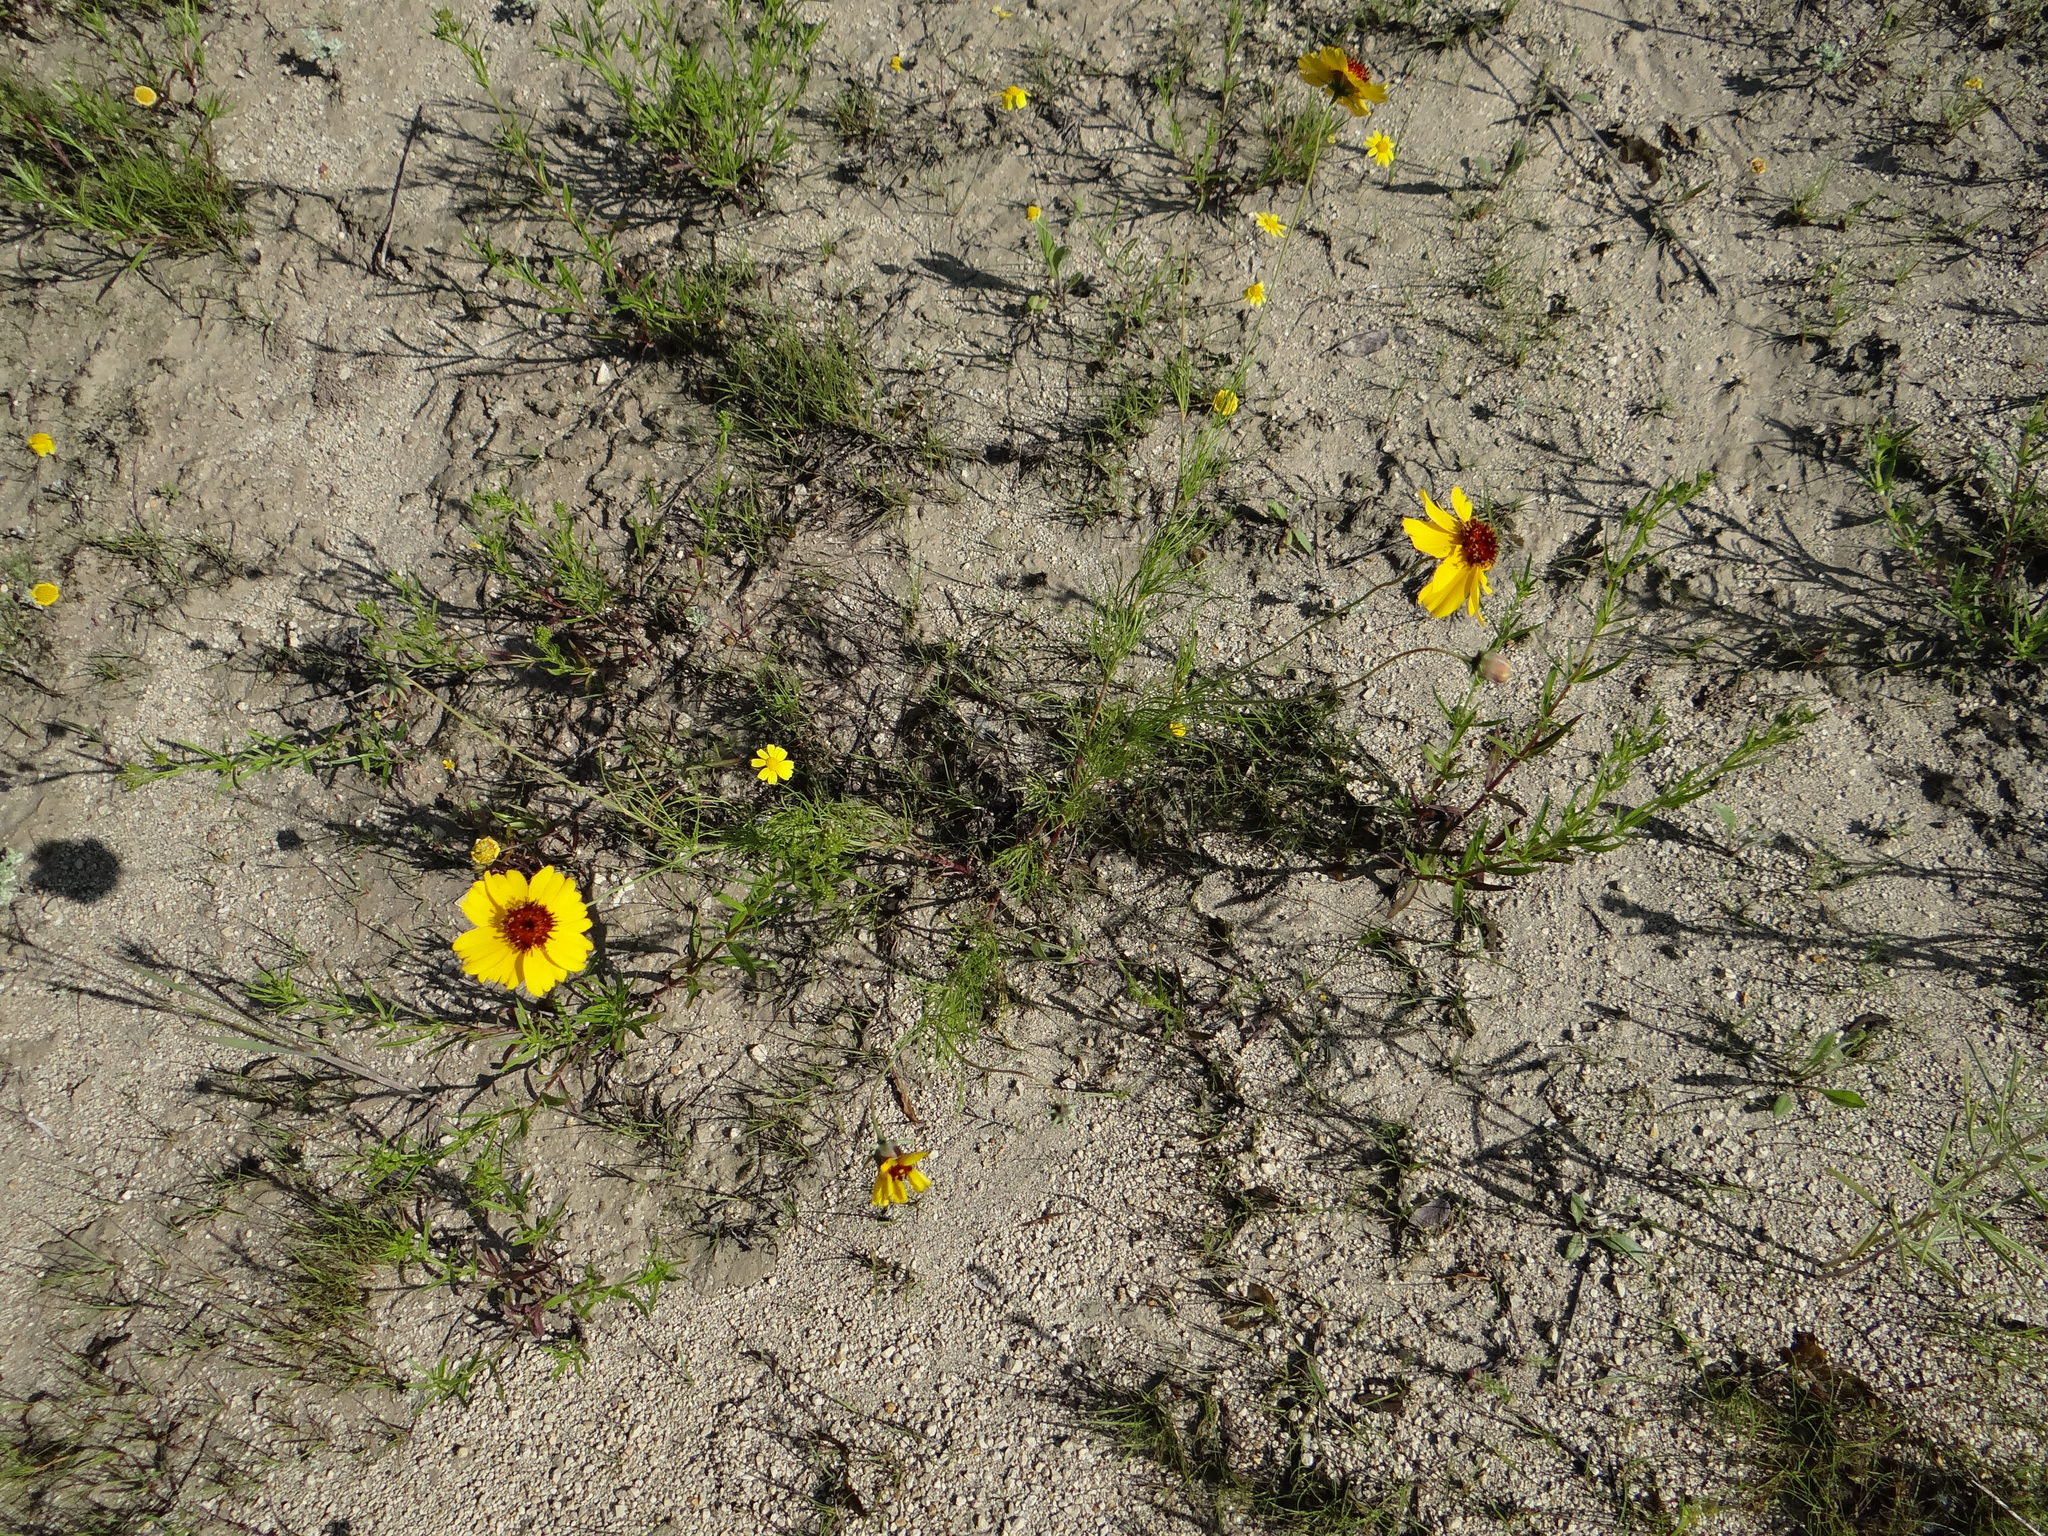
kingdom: Plantae
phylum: Tracheophyta
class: Magnoliopsida
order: Asterales
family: Asteraceae
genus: Thelesperma
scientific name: Thelesperma filifolium
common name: Stiff greenthread
